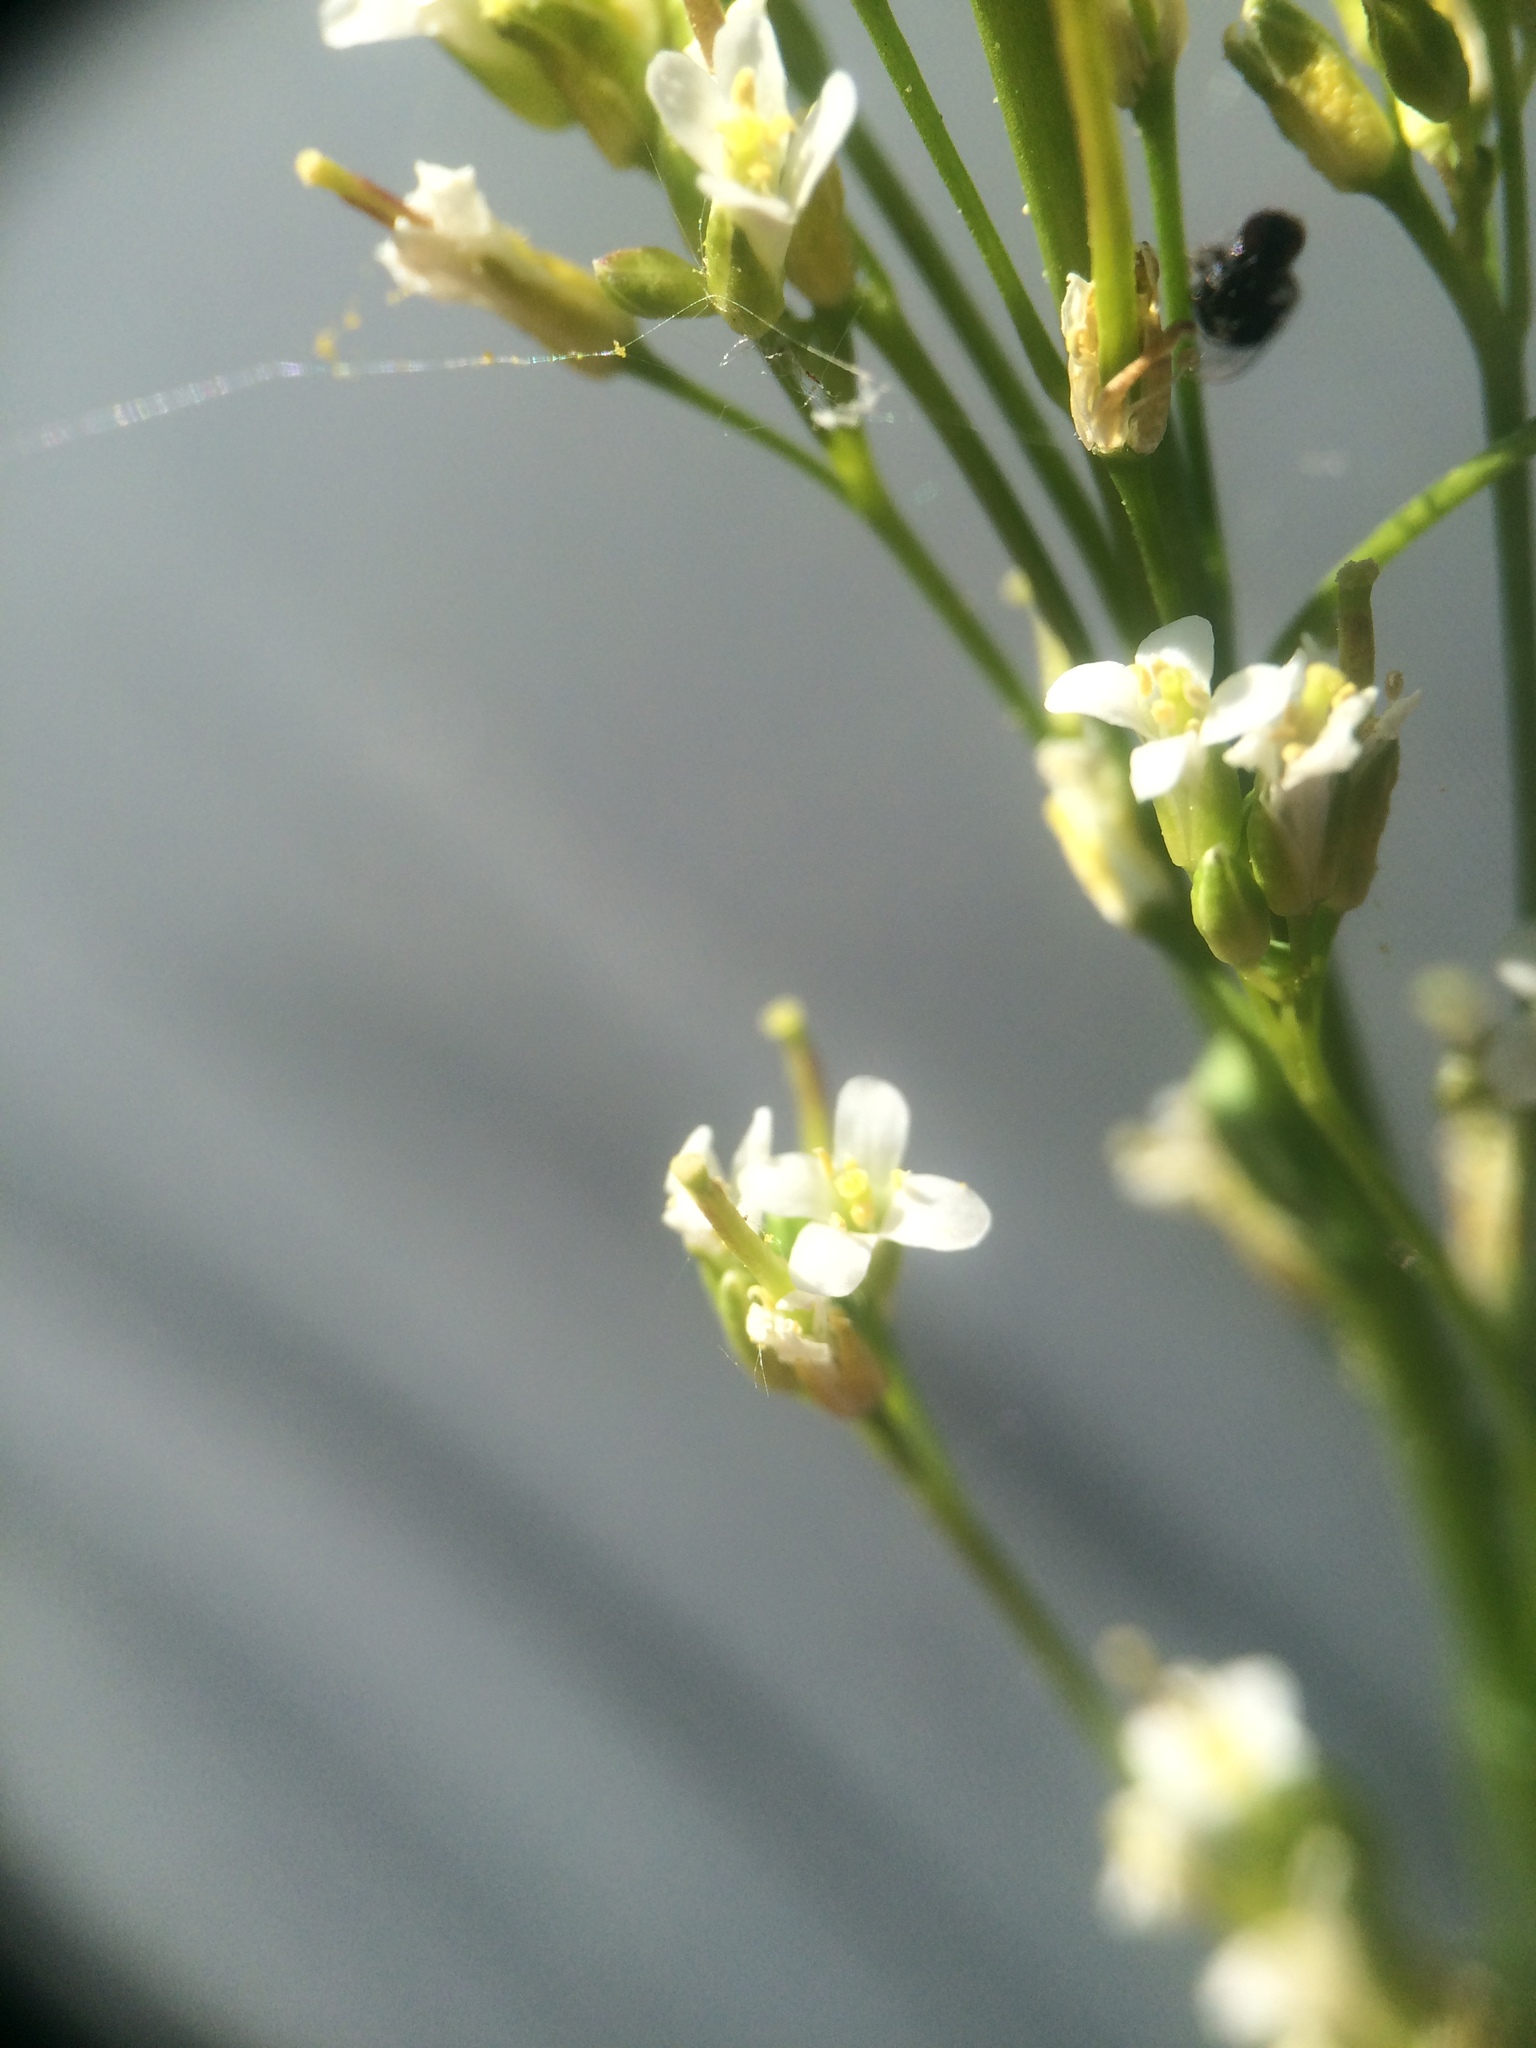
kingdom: Plantae
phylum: Tracheophyta
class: Magnoliopsida
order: Brassicales
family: Brassicaceae
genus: Arabis
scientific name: Arabis pycnocarpa
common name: Blushing rockcress
